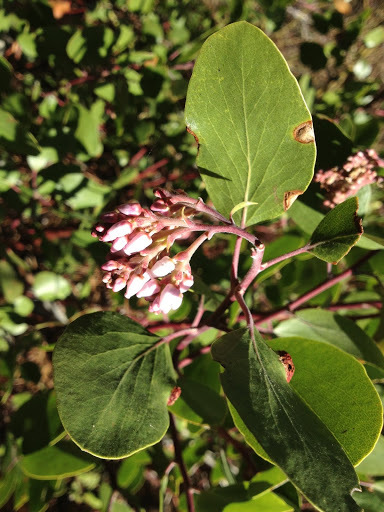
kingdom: Plantae
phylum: Tracheophyta
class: Magnoliopsida
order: Ericales
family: Ericaceae
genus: Arctostaphylos
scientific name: Arctostaphylos patula
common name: Green-leaf manzanita
